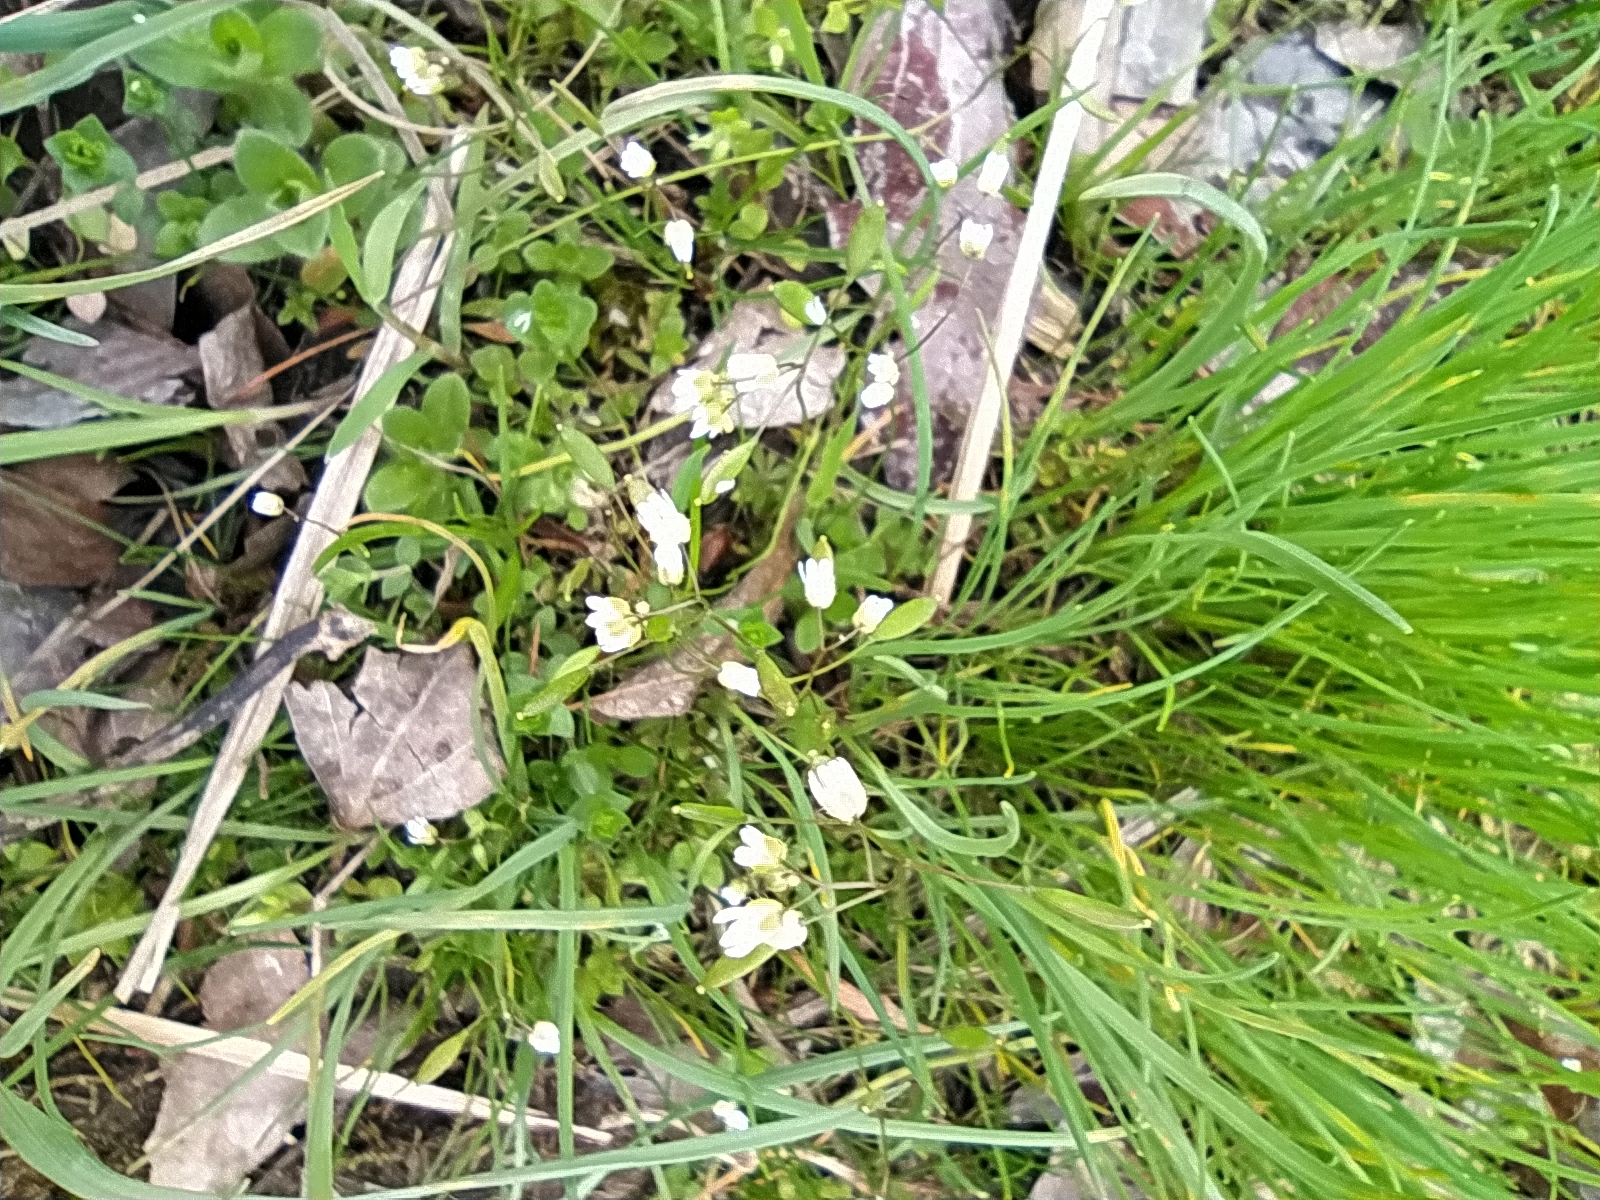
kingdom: Plantae
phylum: Tracheophyta
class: Magnoliopsida
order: Brassicales
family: Brassicaceae
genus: Draba
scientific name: Draba verna
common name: Spring draba
